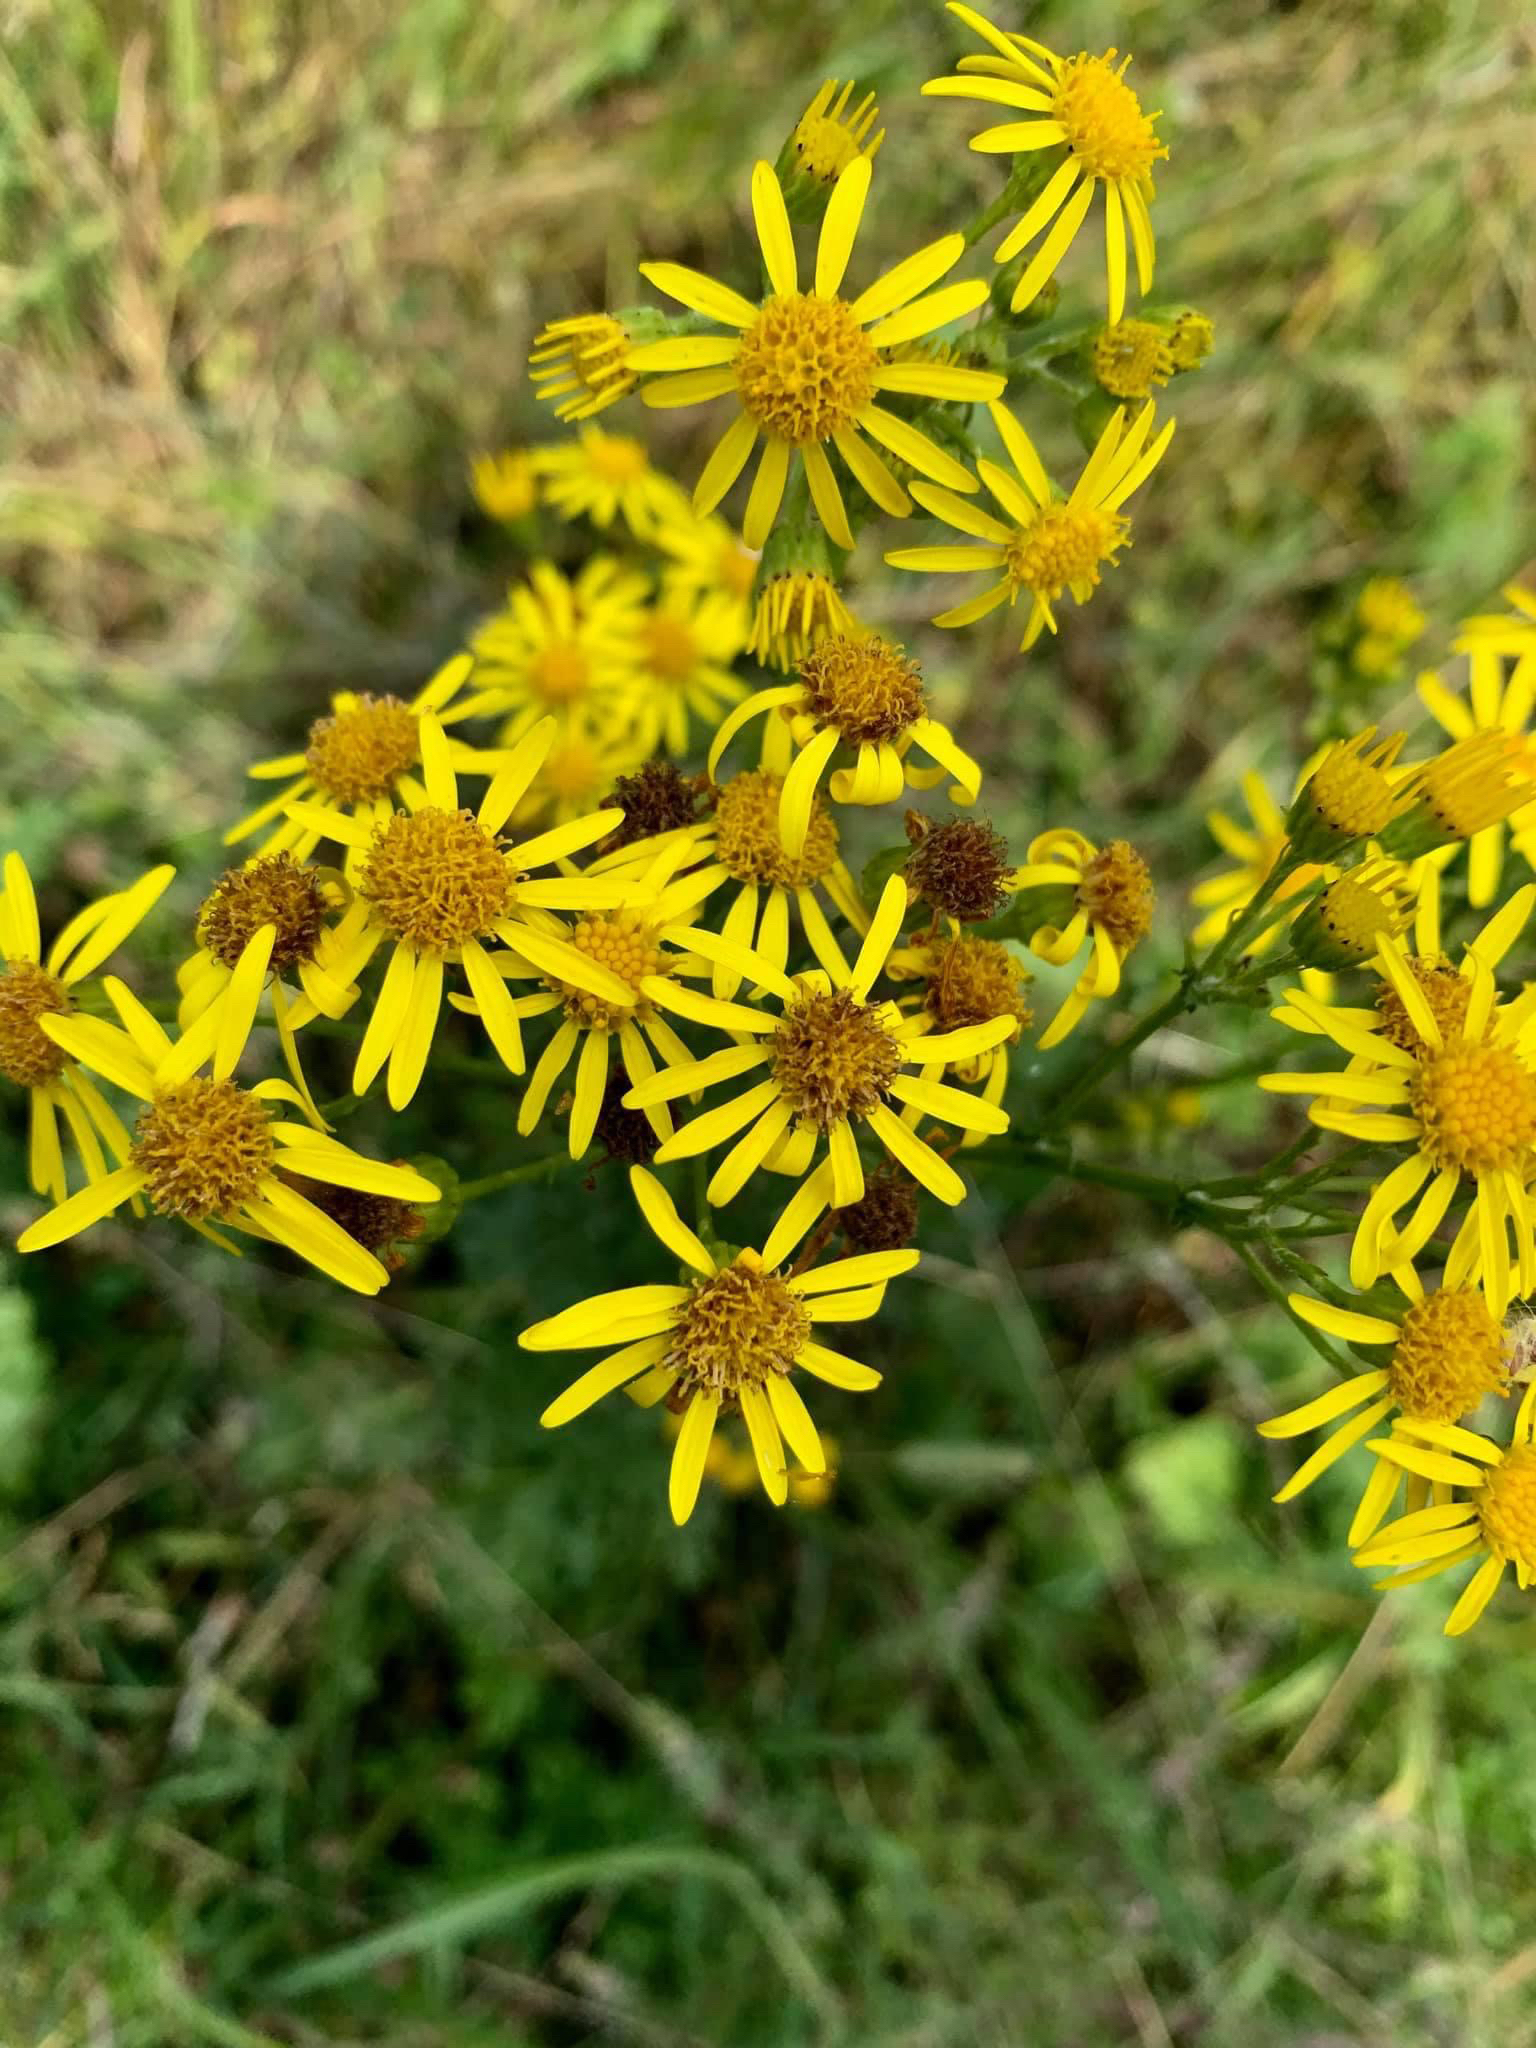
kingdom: Plantae
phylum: Tracheophyta
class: Magnoliopsida
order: Asterales
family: Asteraceae
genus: Jacobaea
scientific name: Jacobaea vulgaris
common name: Stinking willie
